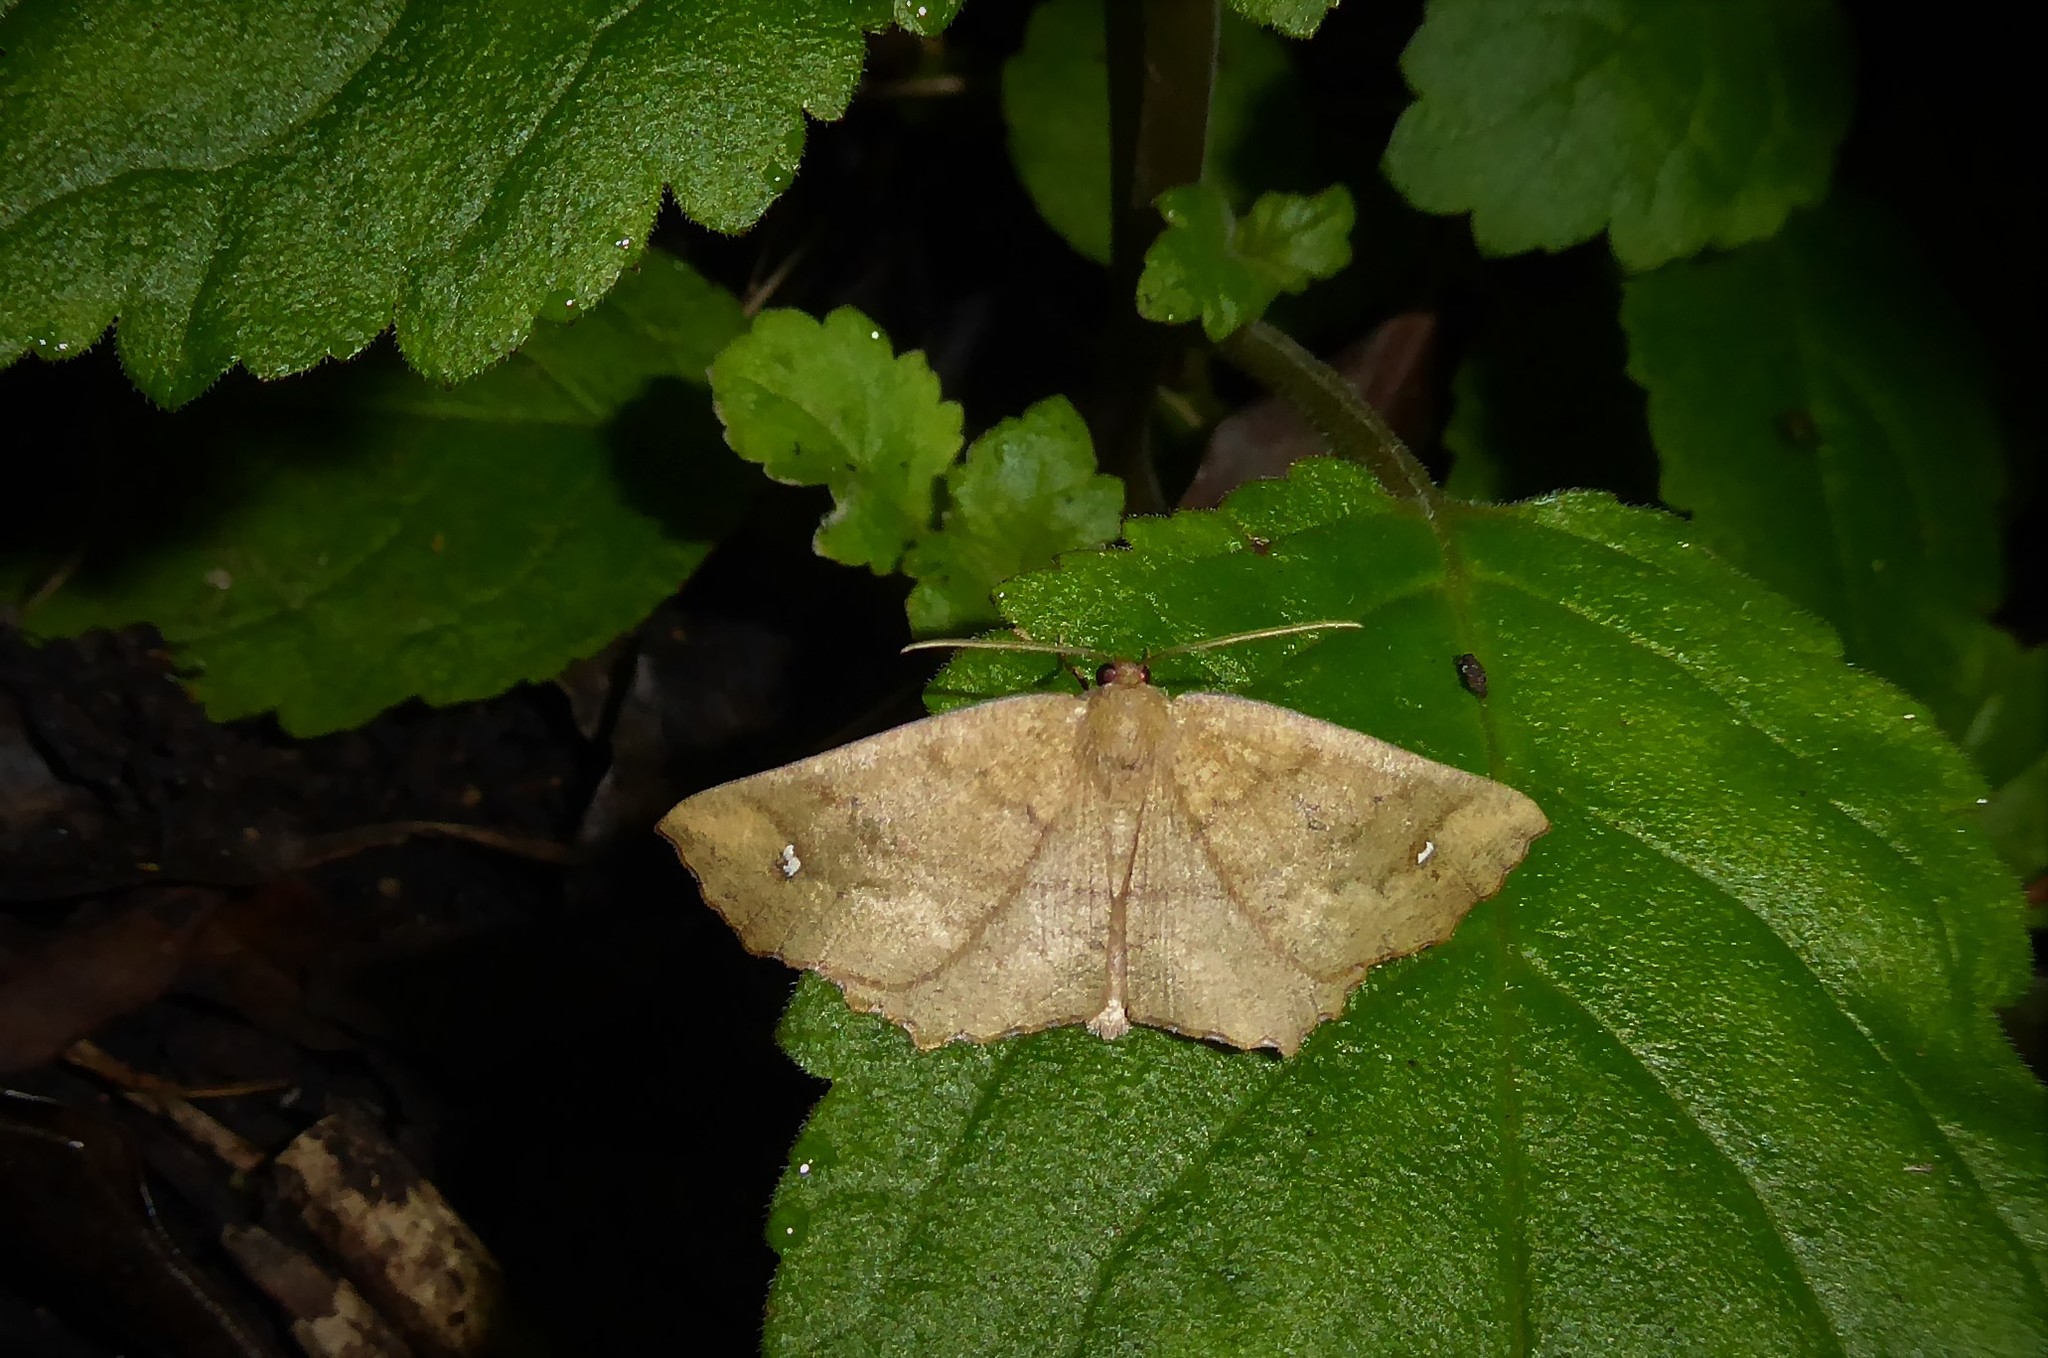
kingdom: Animalia
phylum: Arthropoda
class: Insecta
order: Lepidoptera
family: Geometridae
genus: Xyridacma
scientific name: Xyridacma ustaria
